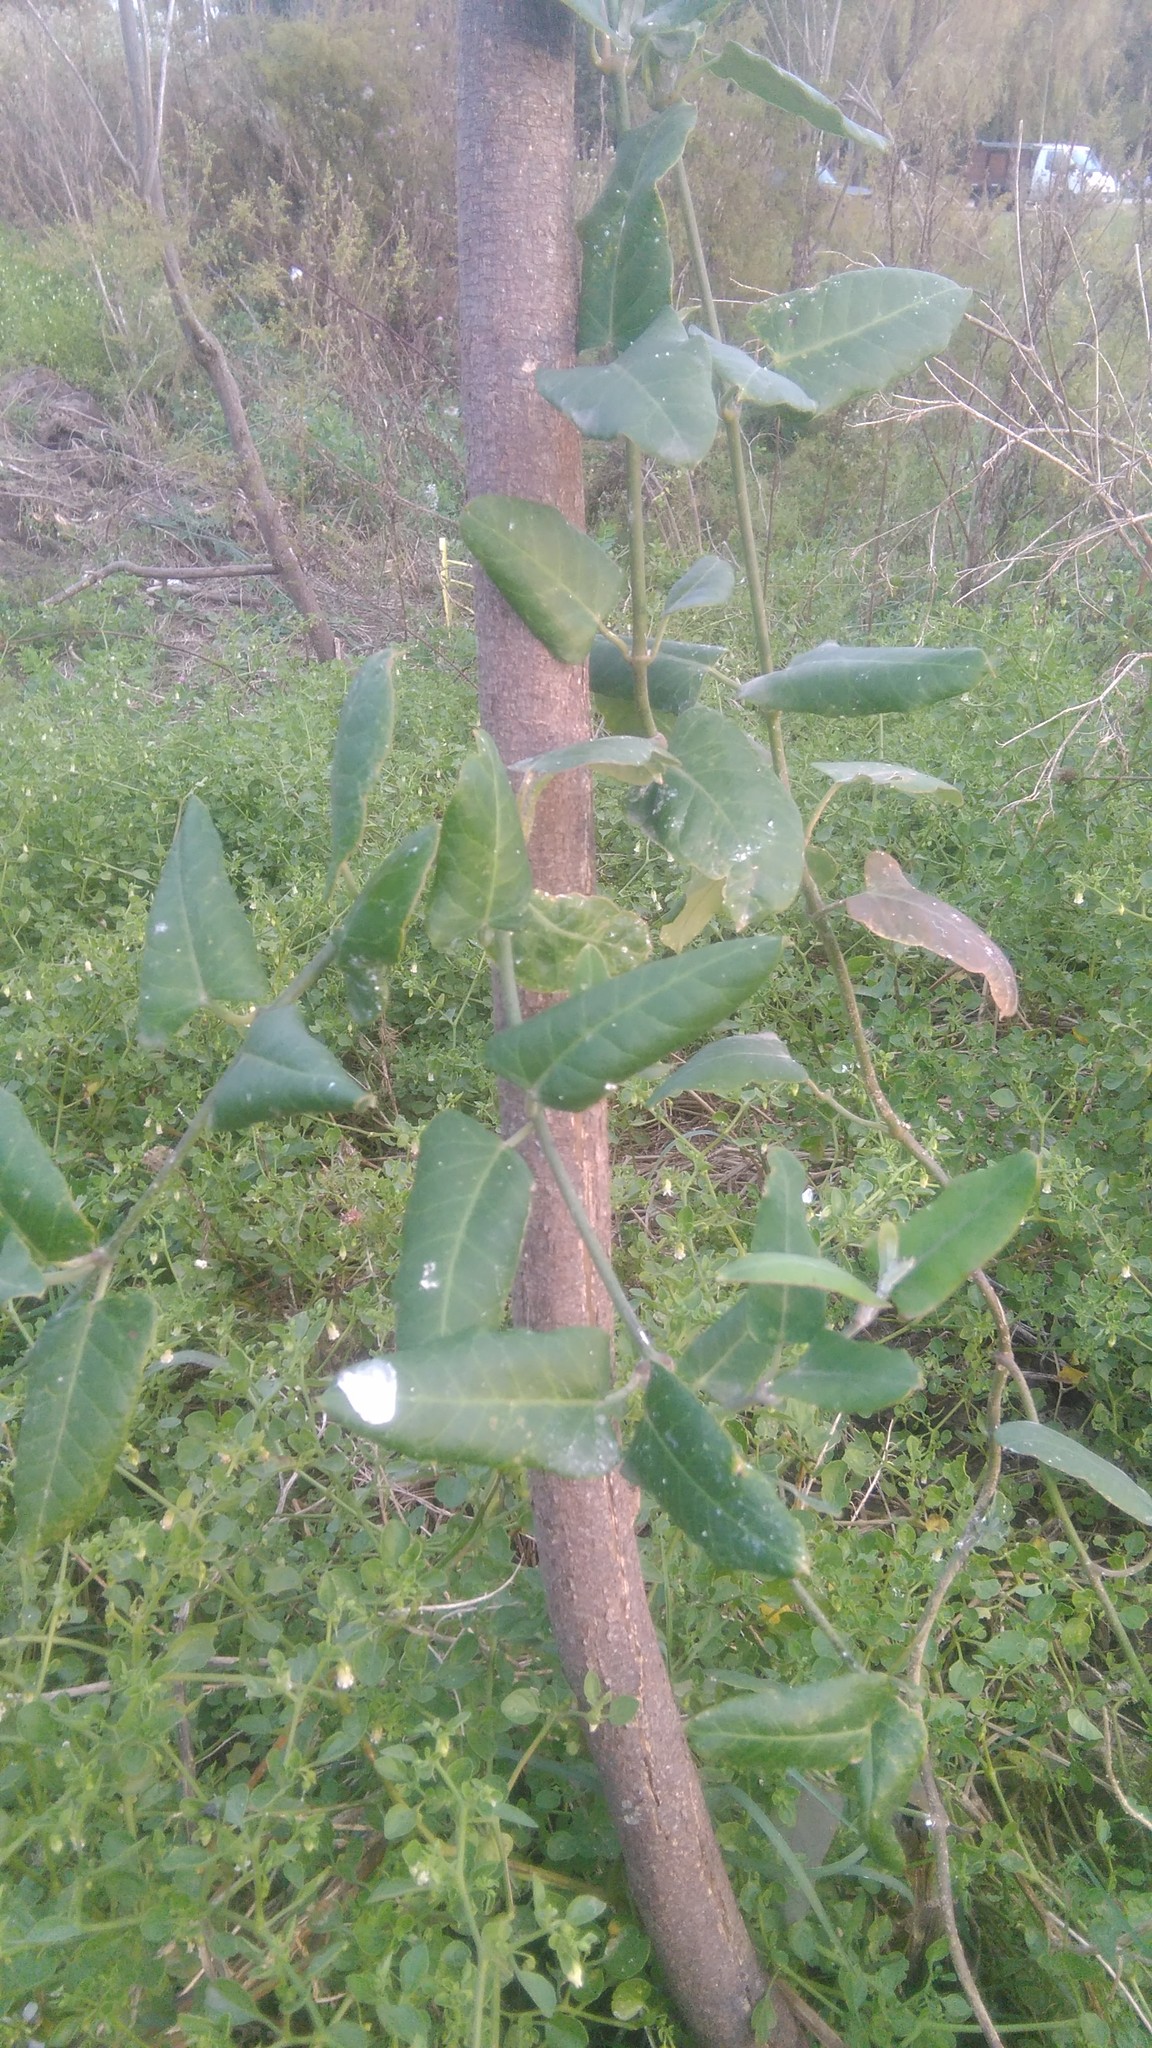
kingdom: Plantae
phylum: Tracheophyta
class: Magnoliopsida
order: Gentianales
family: Apocynaceae
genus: Araujia
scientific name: Araujia sericifera
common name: White bladderflower
